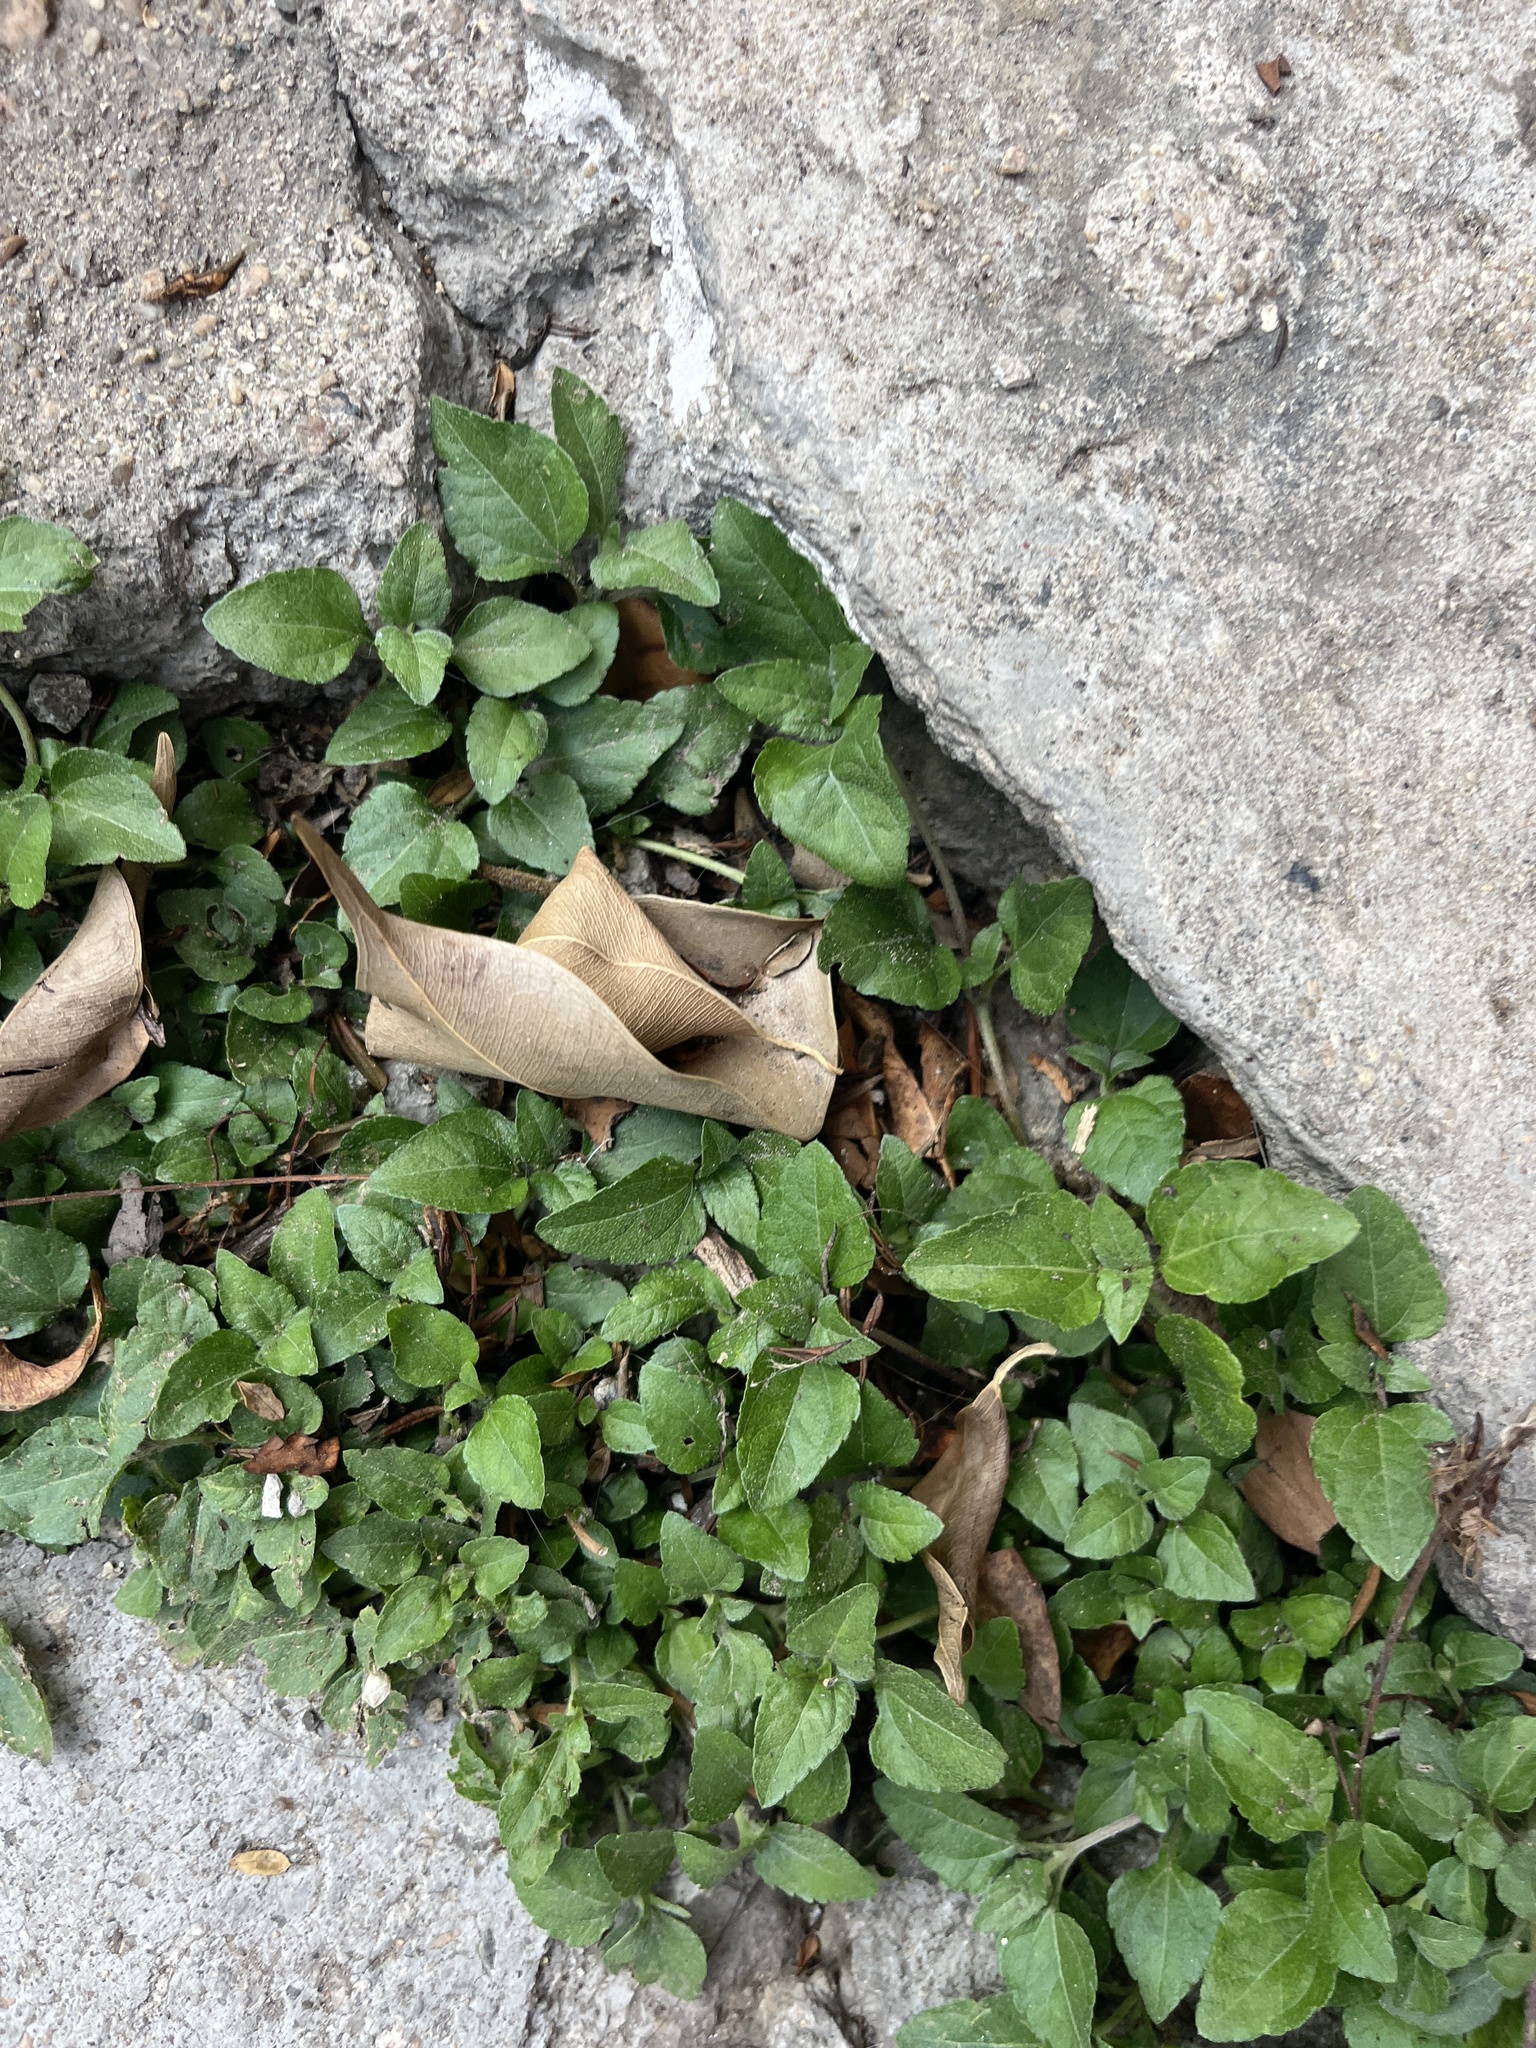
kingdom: Plantae
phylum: Tracheophyta
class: Magnoliopsida
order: Asterales
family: Asteraceae
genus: Calyptocarpus
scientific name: Calyptocarpus vialis
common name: Straggler daisy
